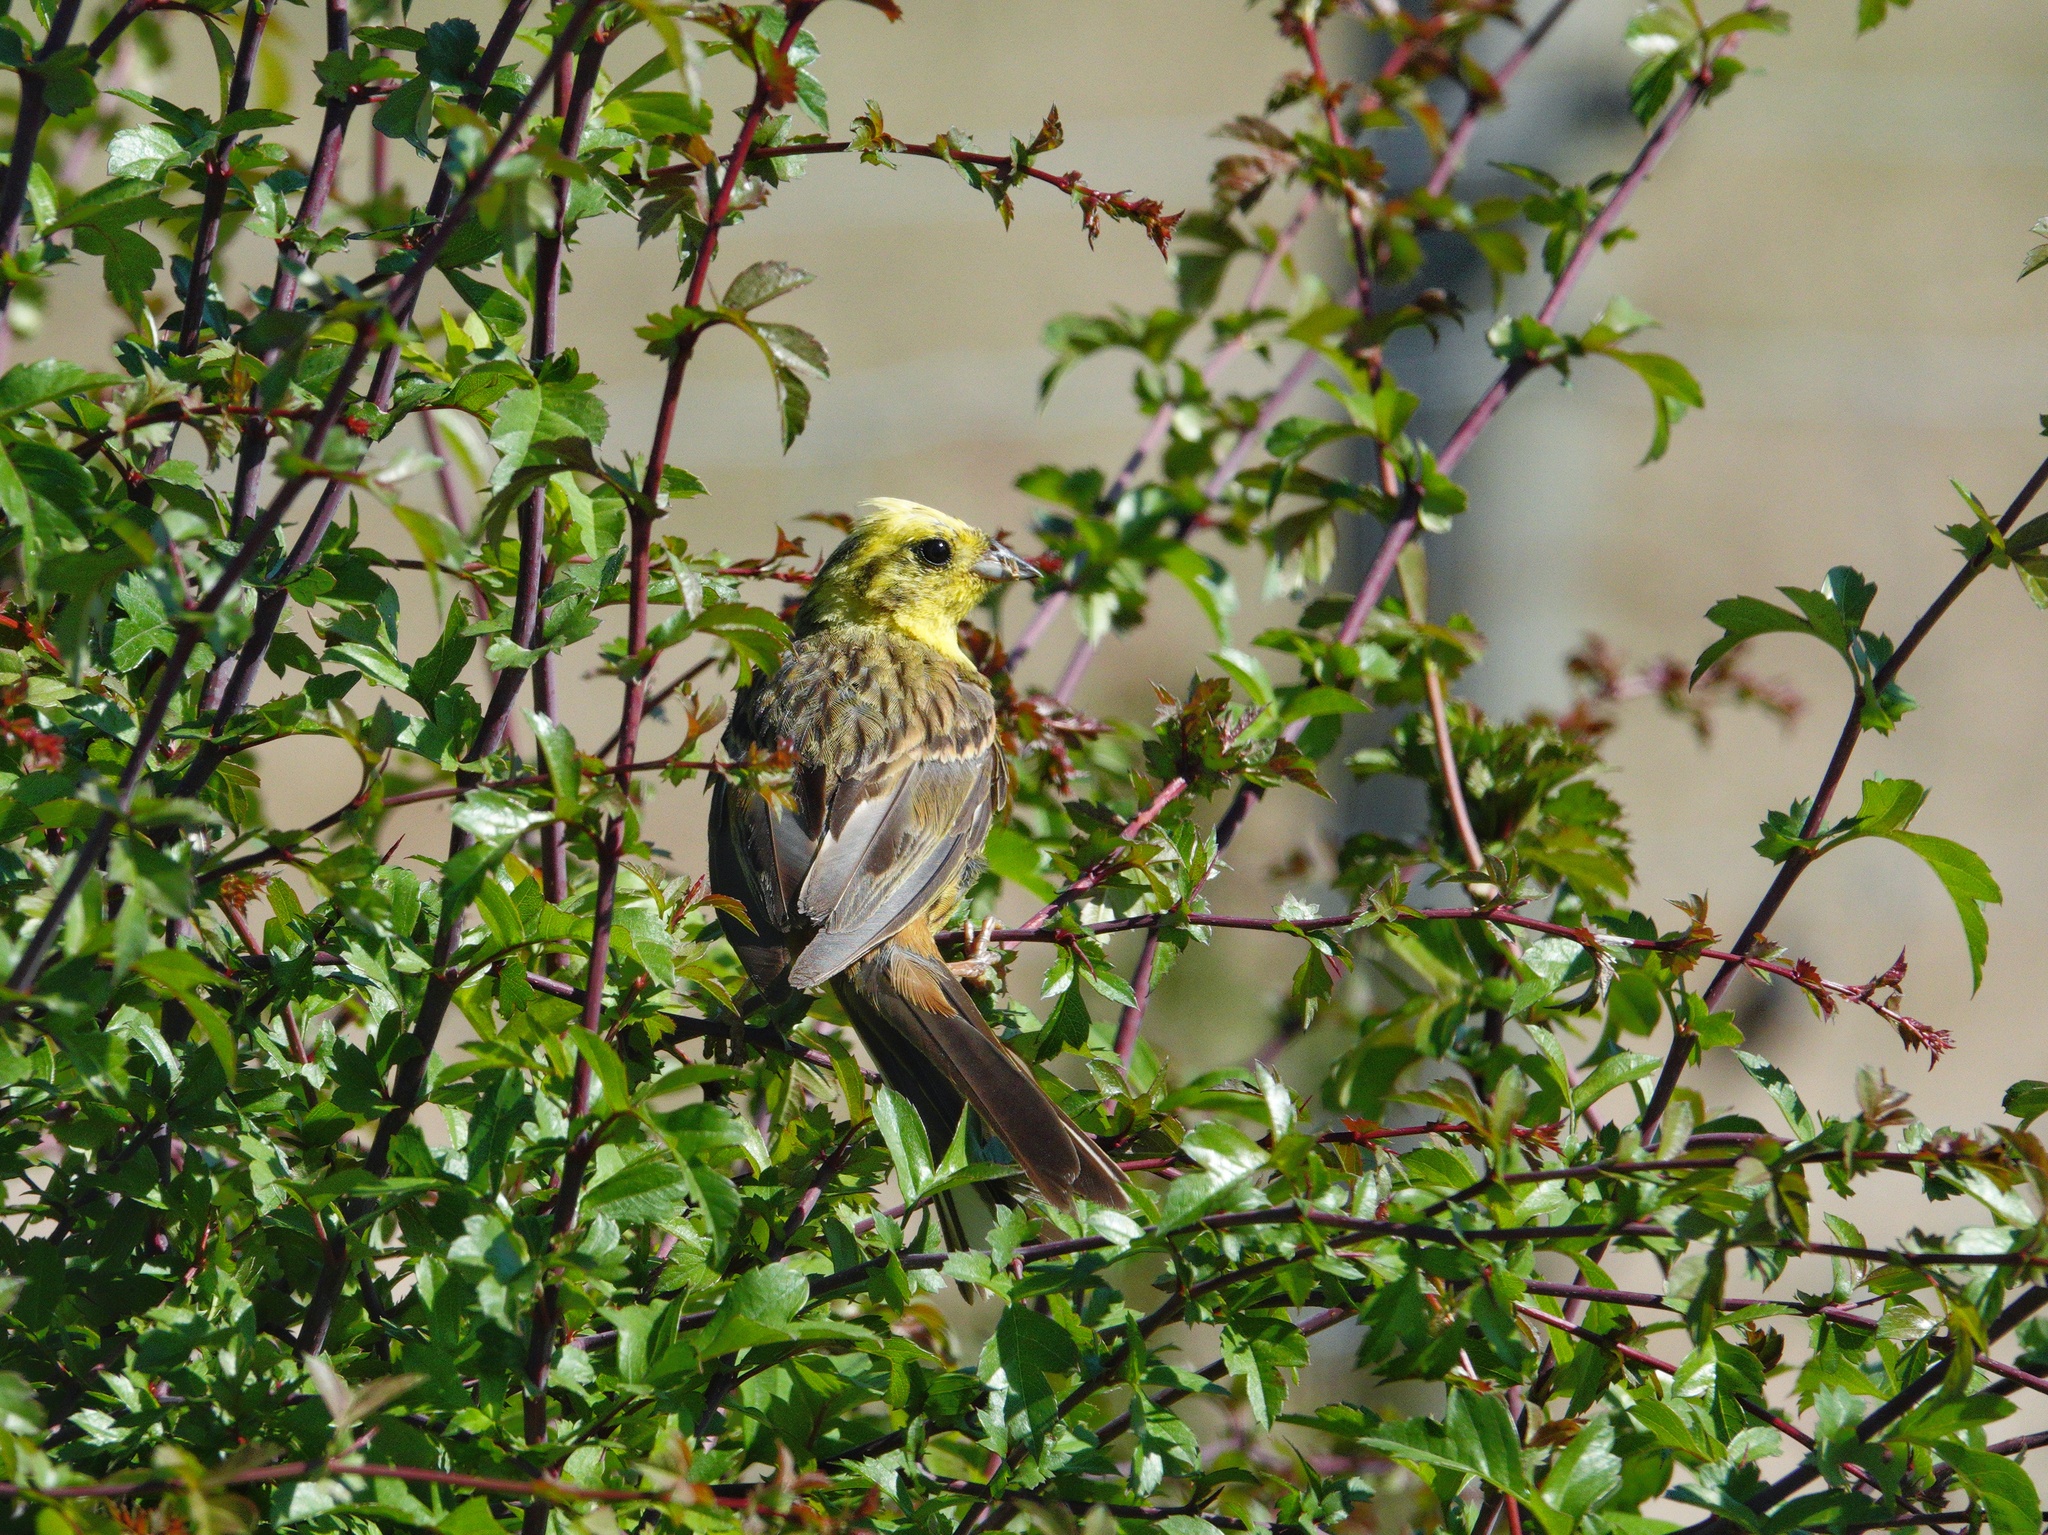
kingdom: Animalia
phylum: Chordata
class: Aves
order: Passeriformes
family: Emberizidae
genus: Emberiza
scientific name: Emberiza citrinella
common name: Yellowhammer
